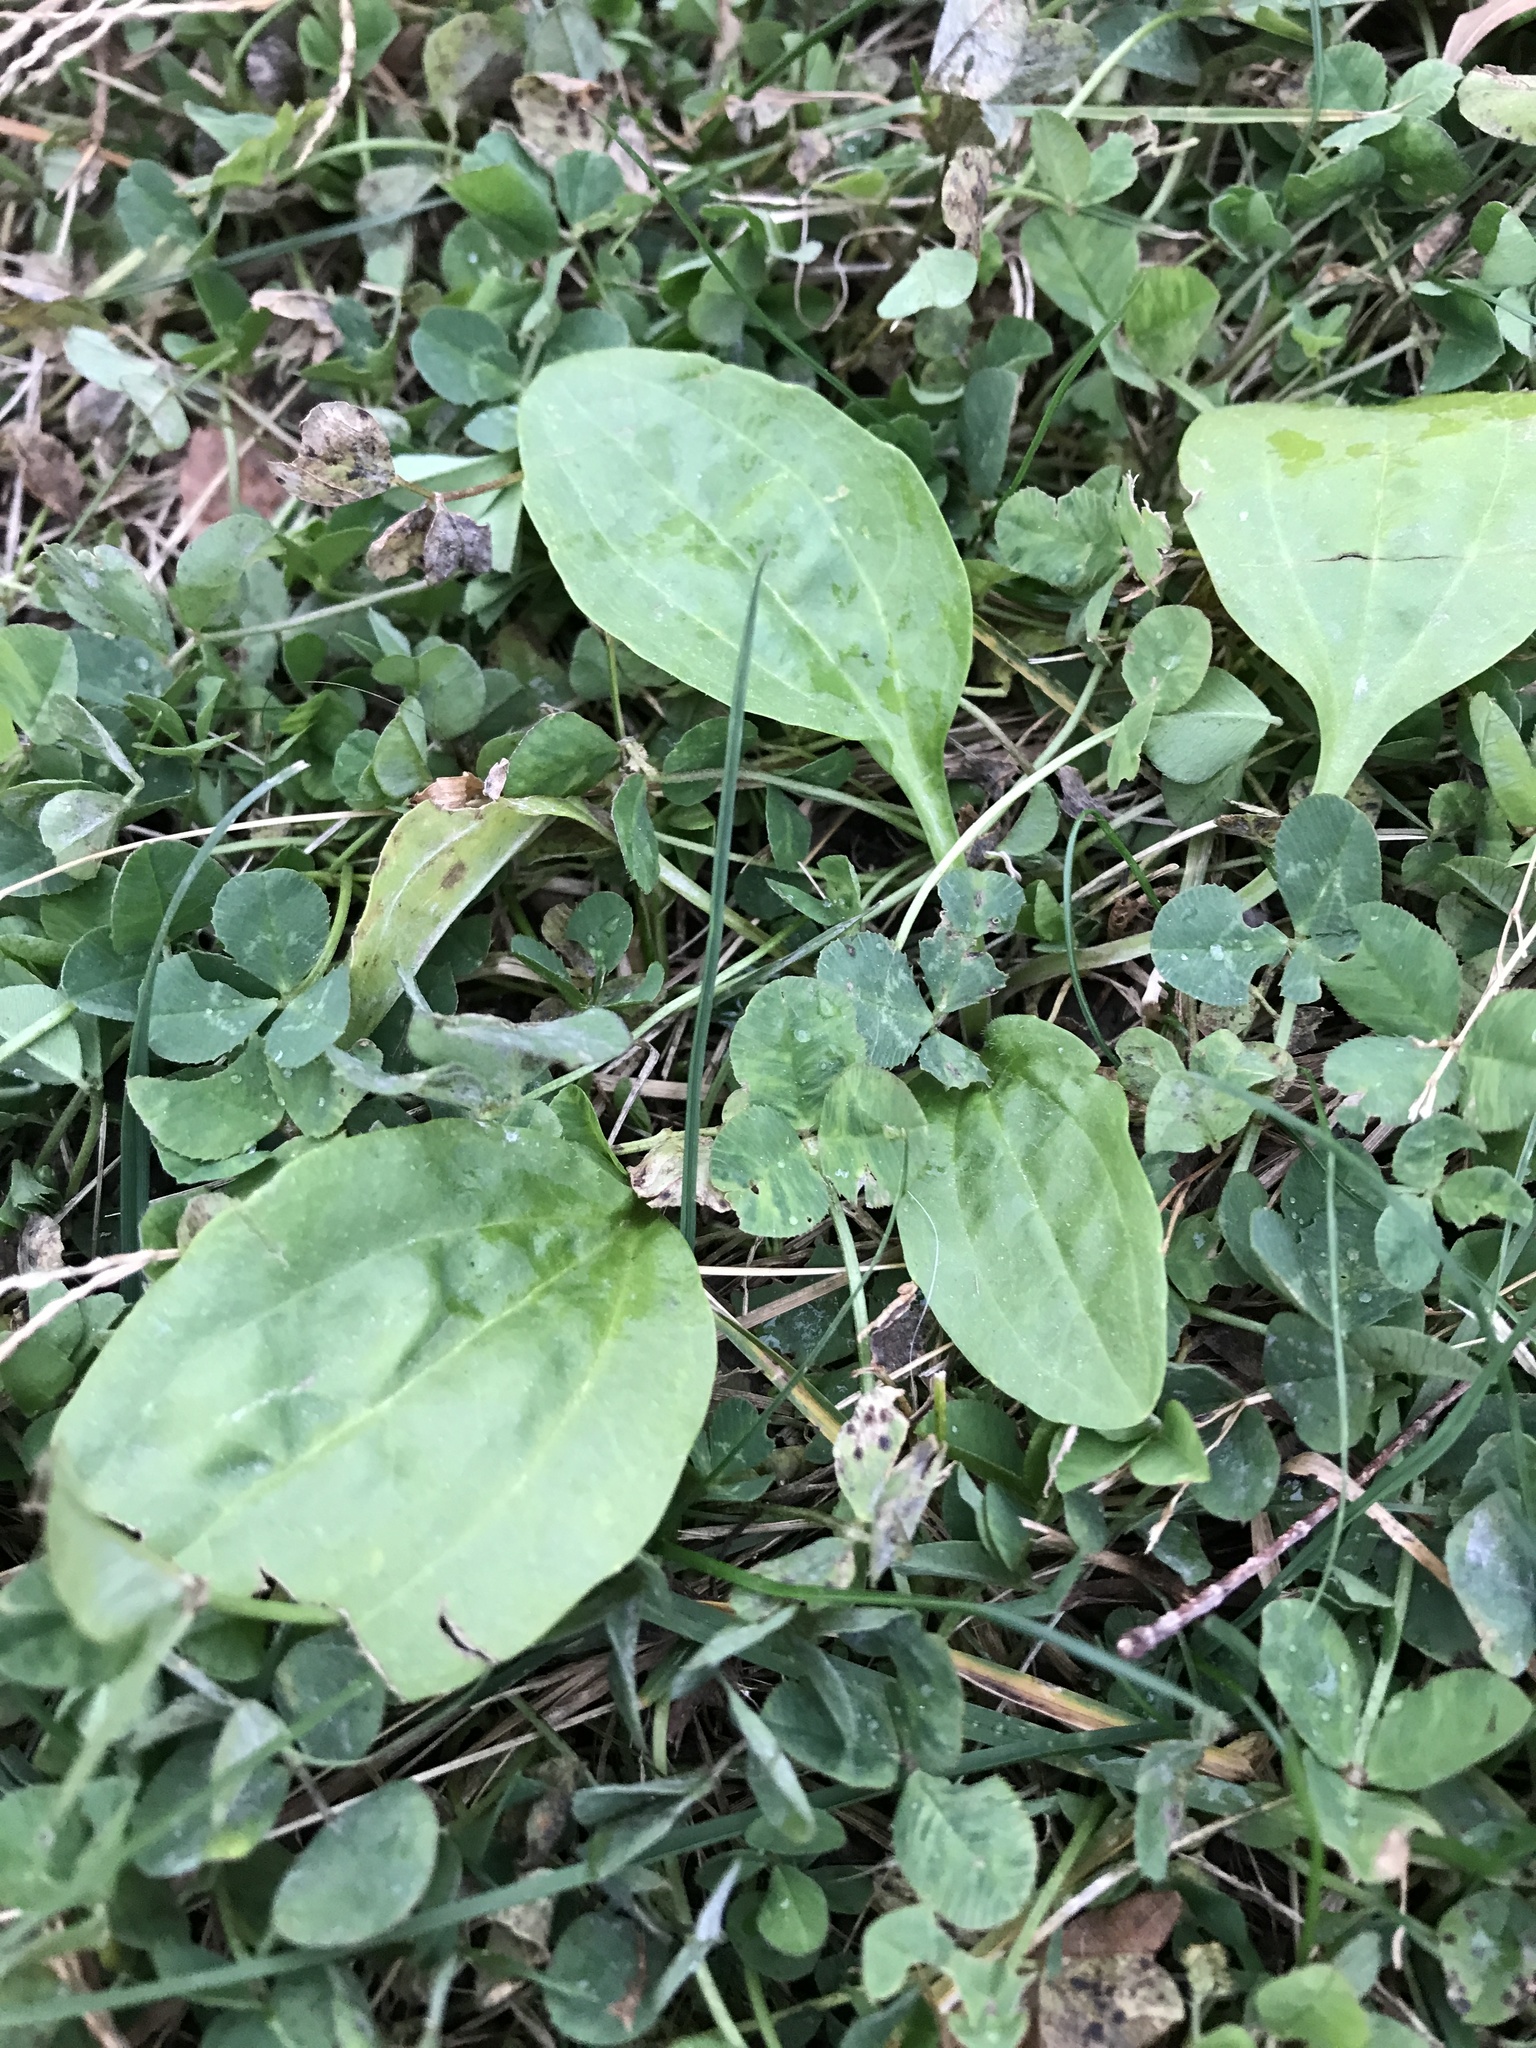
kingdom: Plantae
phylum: Tracheophyta
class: Magnoliopsida
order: Lamiales
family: Plantaginaceae
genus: Plantago
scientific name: Plantago major
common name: Common plantain
